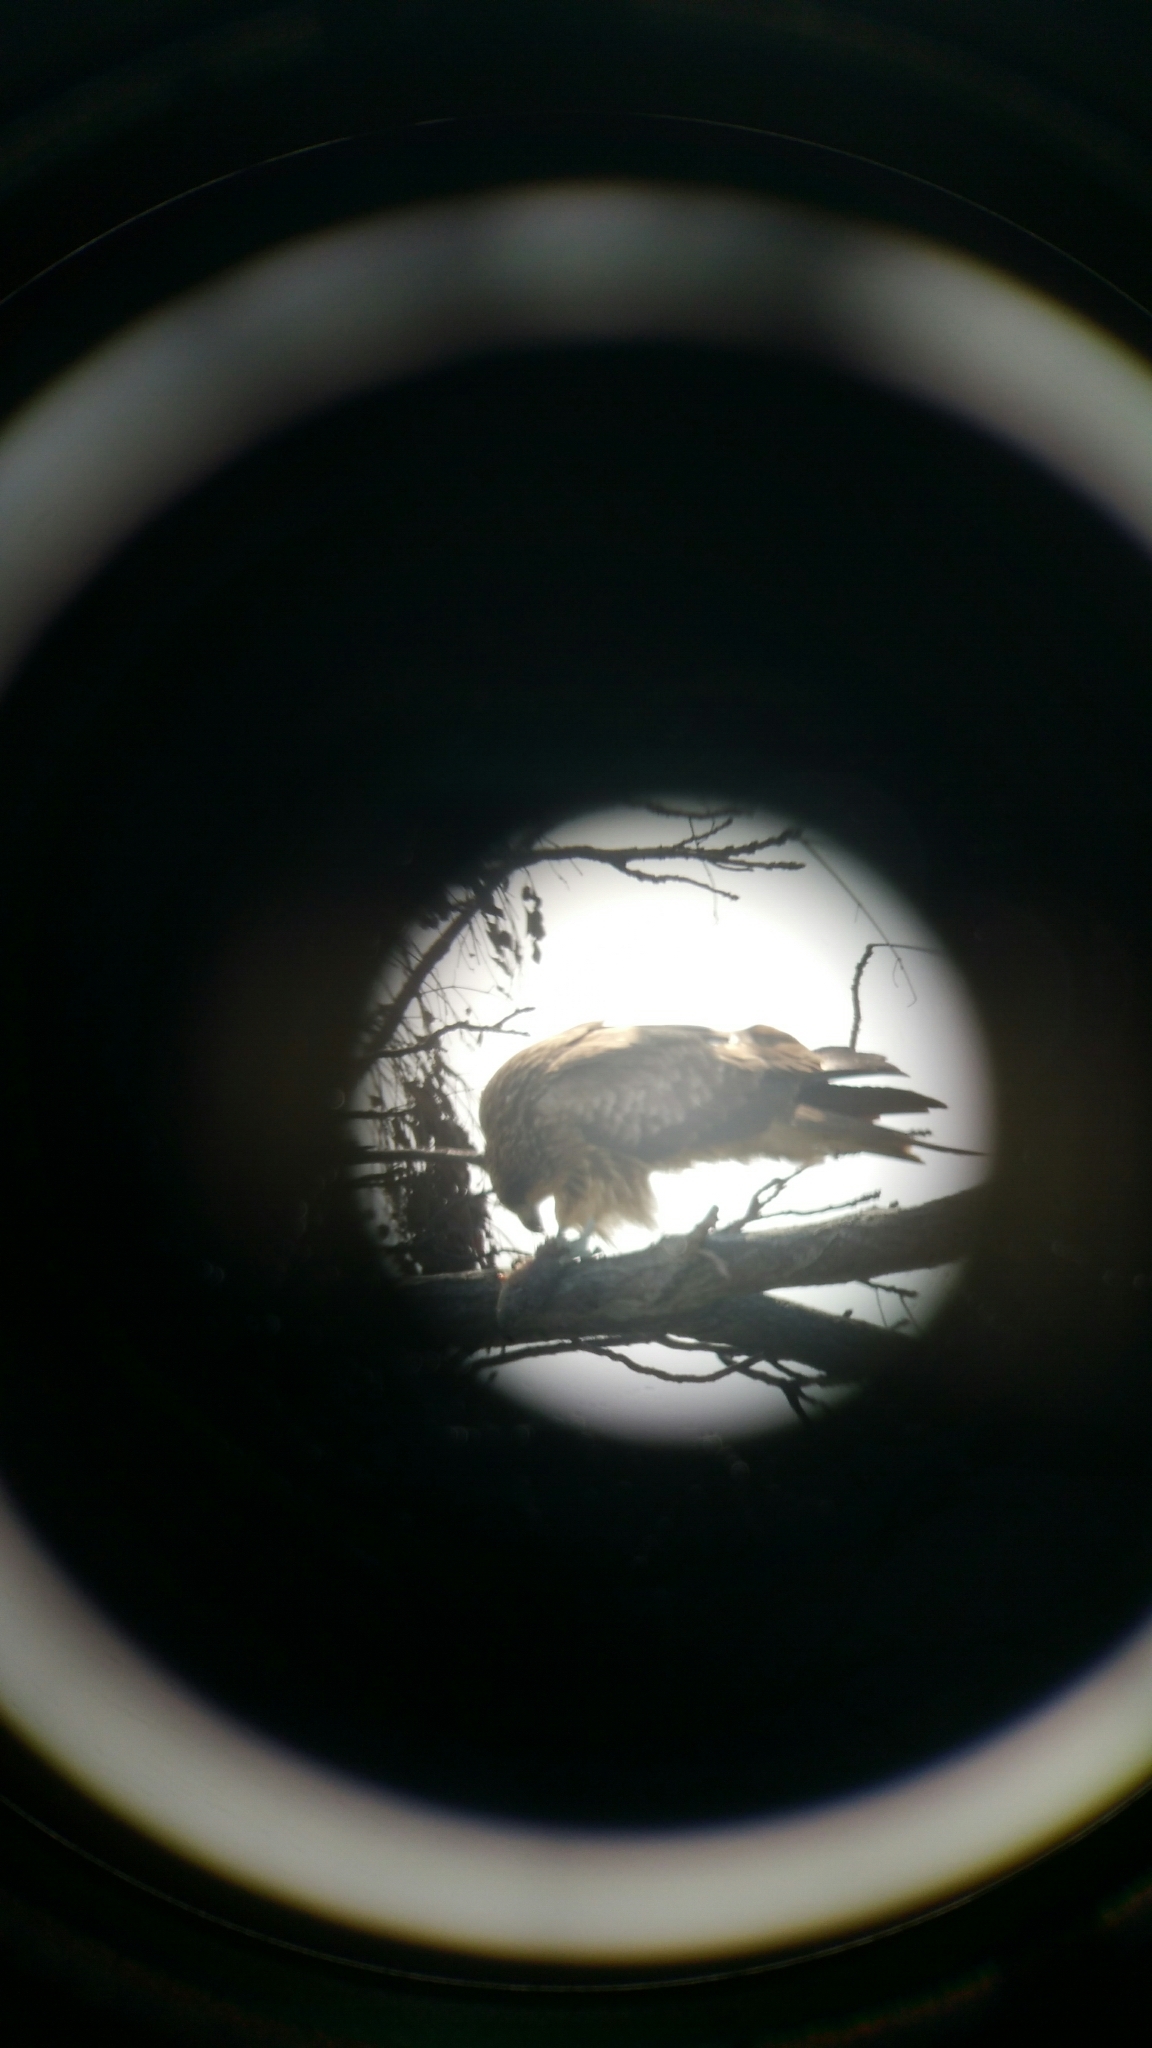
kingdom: Animalia
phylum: Chordata
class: Aves
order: Accipitriformes
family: Accipitridae
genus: Milvus
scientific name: Milvus migrans
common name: Black kite
